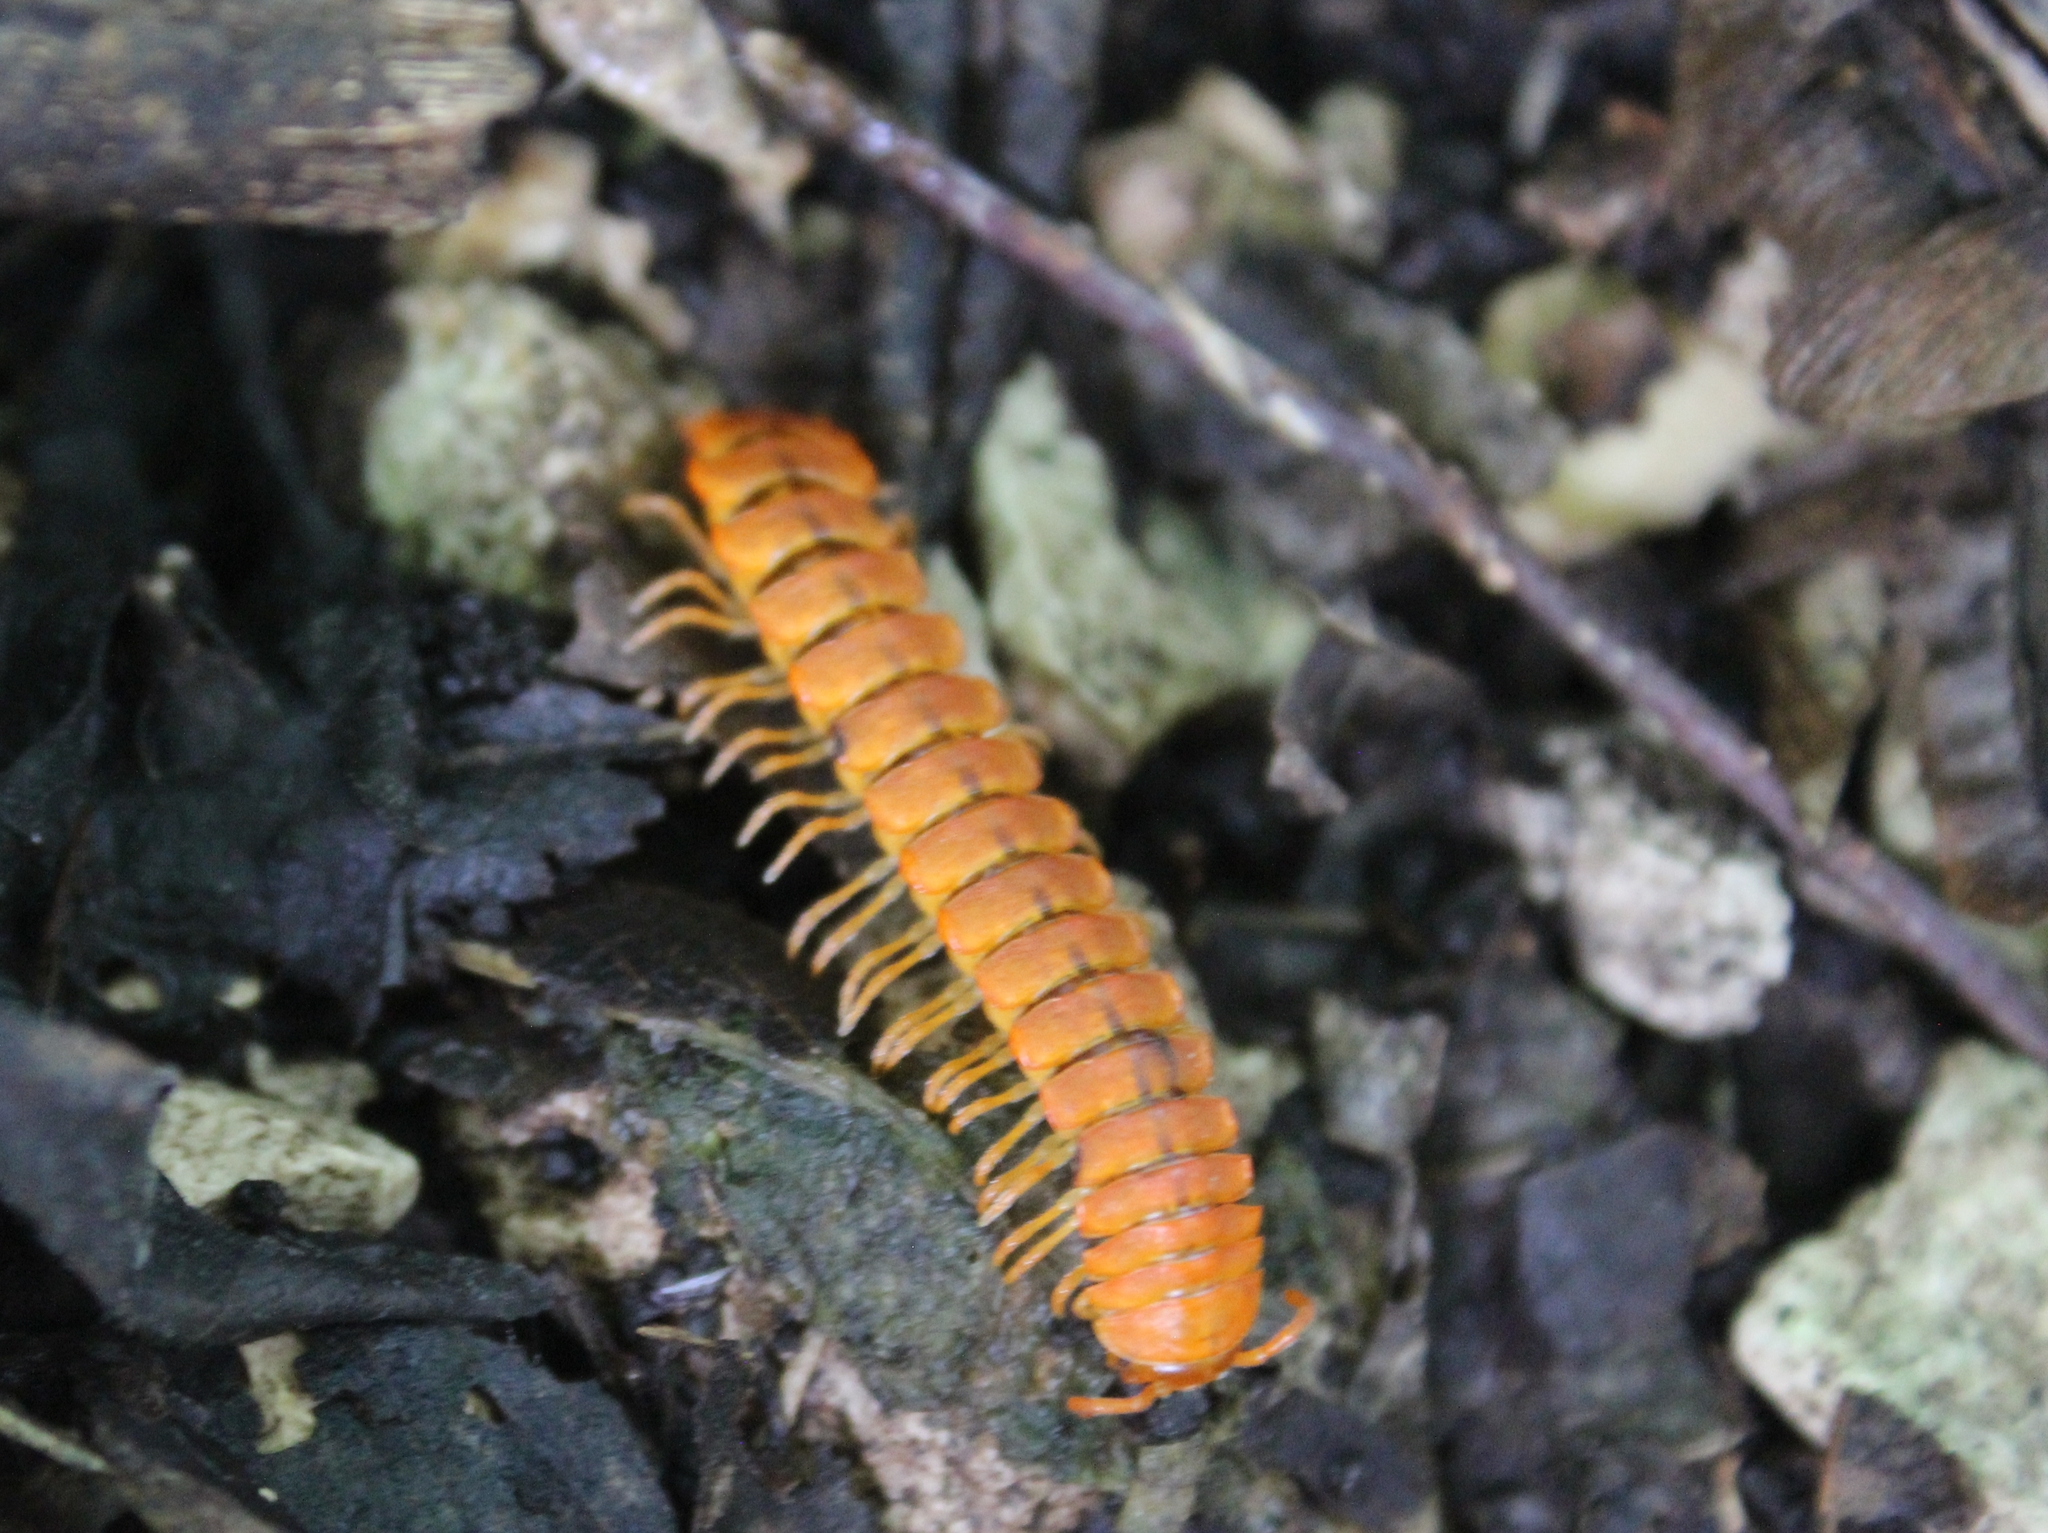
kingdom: Animalia
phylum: Arthropoda
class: Diplopoda
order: Polydesmida
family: Rhachodesmidae
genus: Aceratophallus
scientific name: Aceratophallus maya
